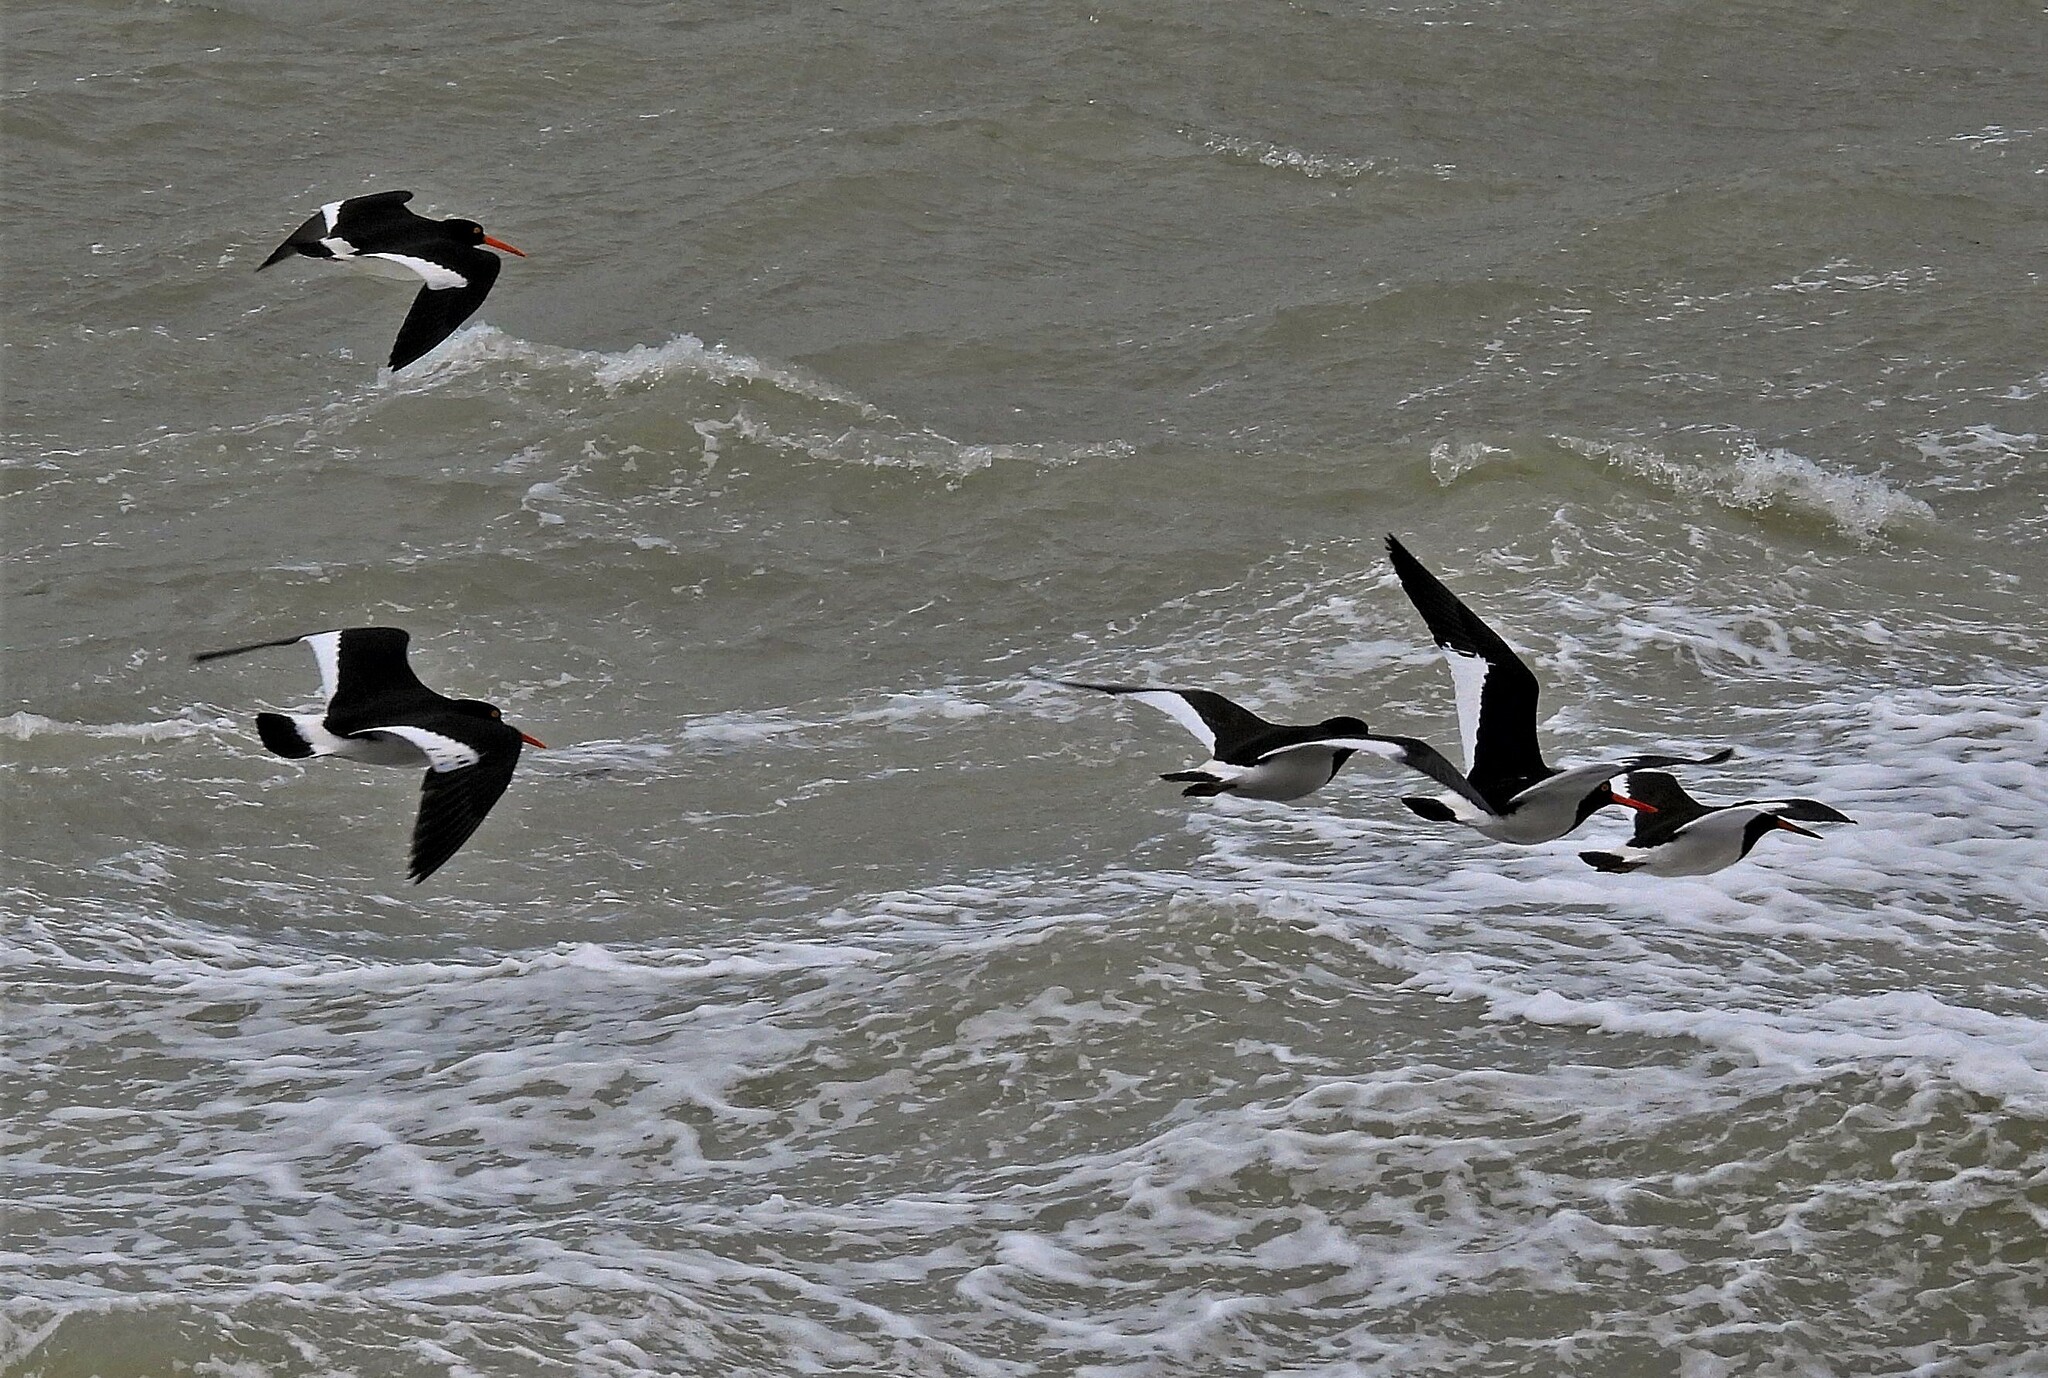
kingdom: Animalia
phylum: Chordata
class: Aves
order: Charadriiformes
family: Haematopodidae
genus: Haematopus
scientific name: Haematopus leucopodus
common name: Magellanic oystercatcher
